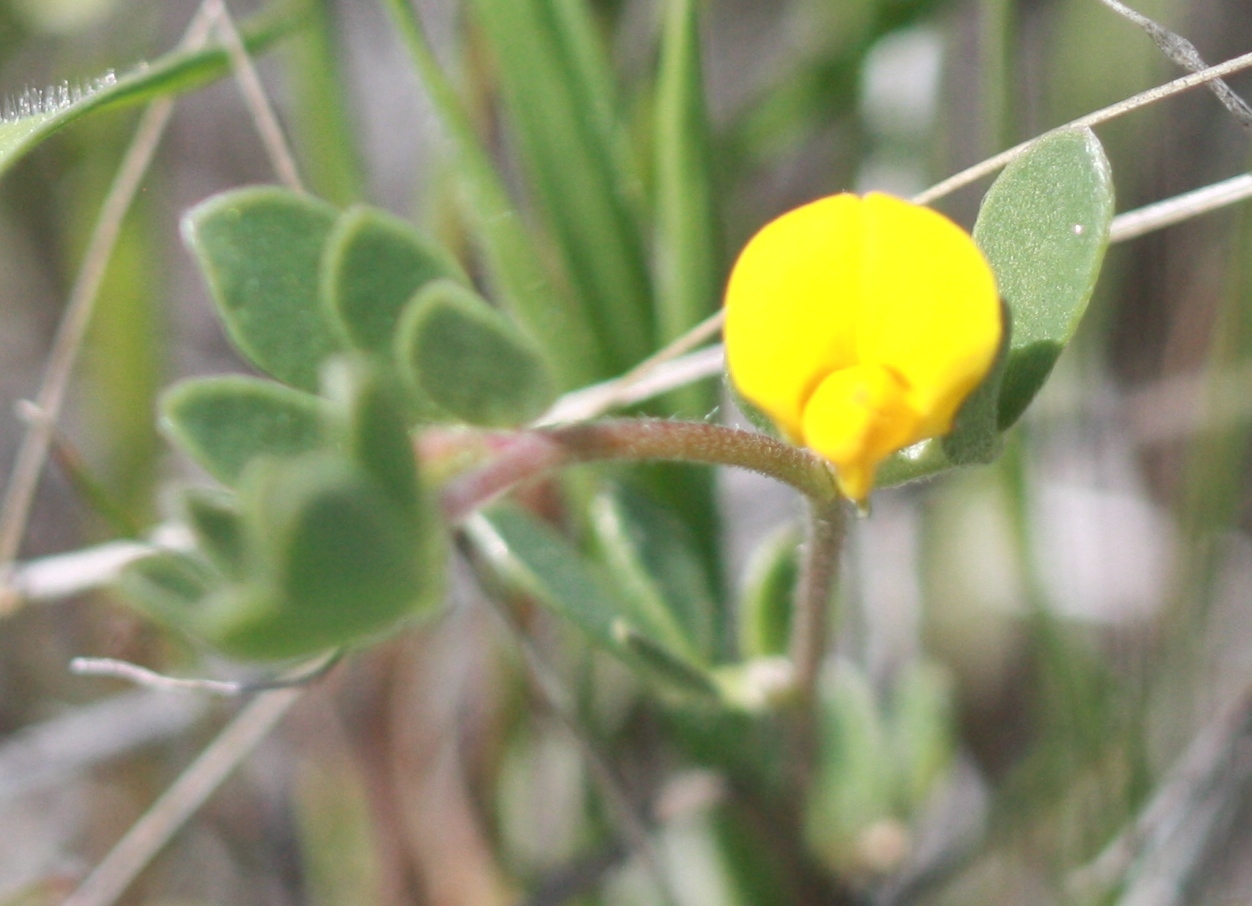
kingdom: Plantae
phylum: Tracheophyta
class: Magnoliopsida
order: Fabales
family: Fabaceae
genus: Acmispon
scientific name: Acmispon wrangelianus
